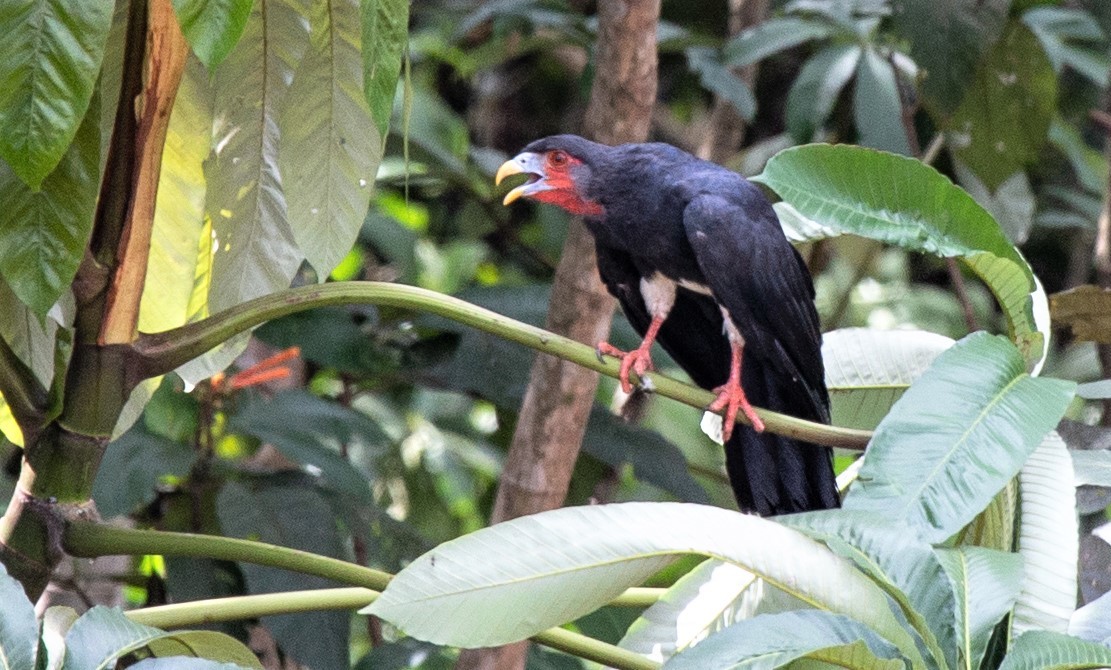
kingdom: Animalia
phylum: Chordata
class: Aves
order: Falconiformes
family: Falconidae
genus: Ibycter
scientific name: Ibycter americanus
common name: Red-throated caracara
